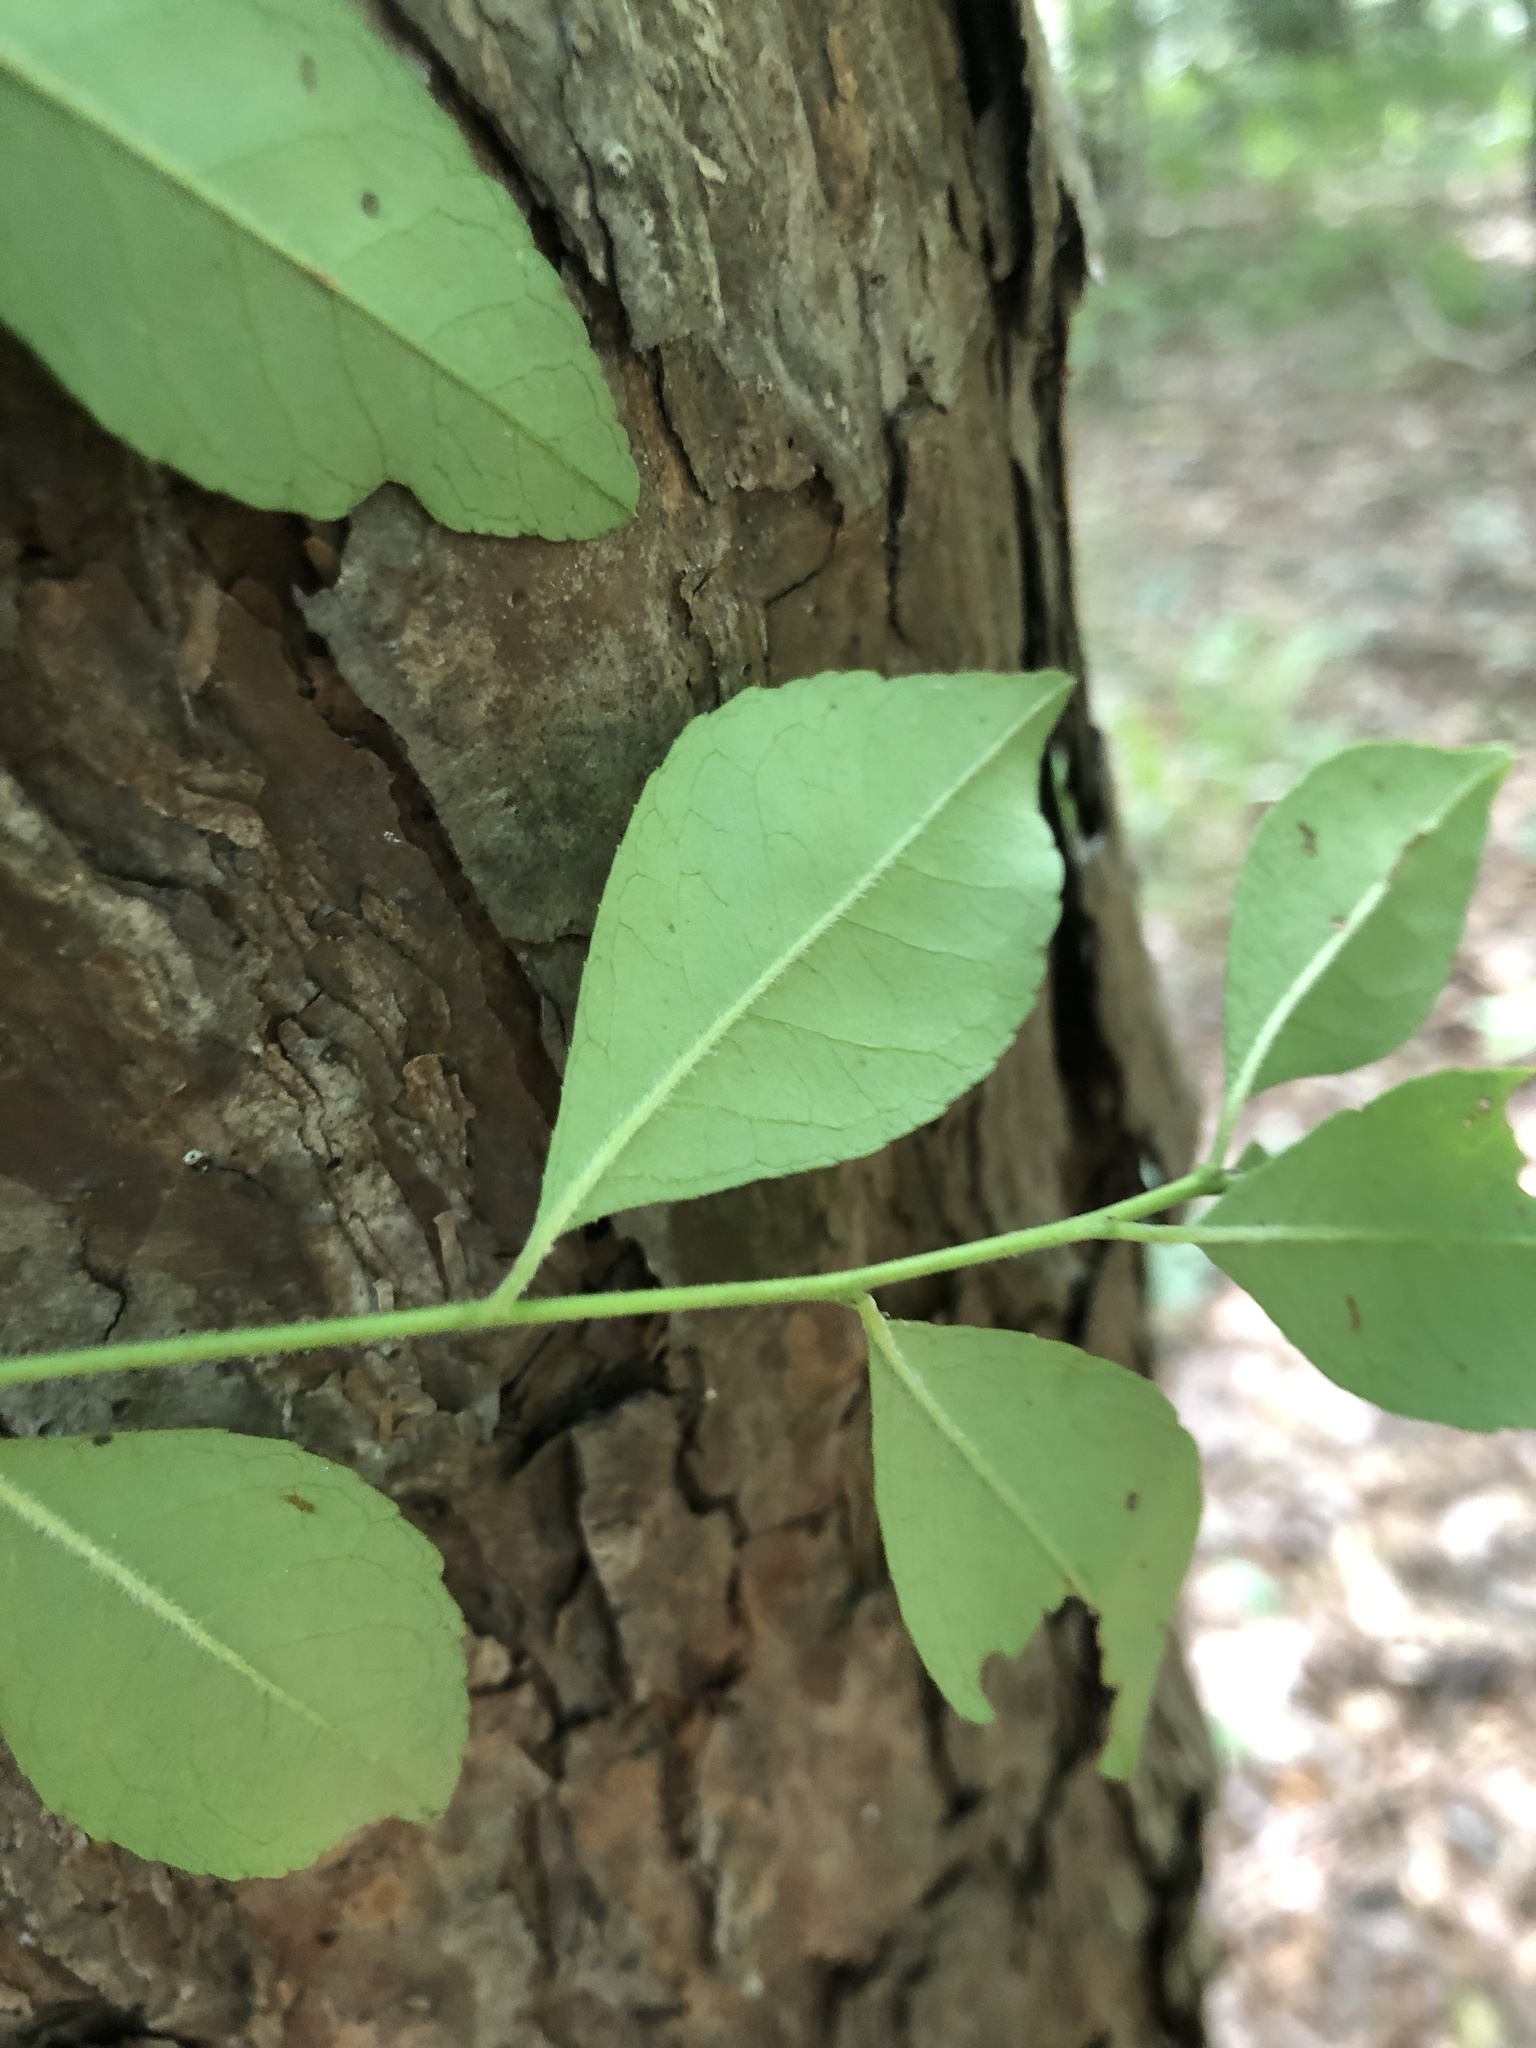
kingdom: Plantae
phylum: Tracheophyta
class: Magnoliopsida
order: Aquifoliales
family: Aquifoliaceae
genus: Ilex
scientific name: Ilex longipes
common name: Georgia holly
